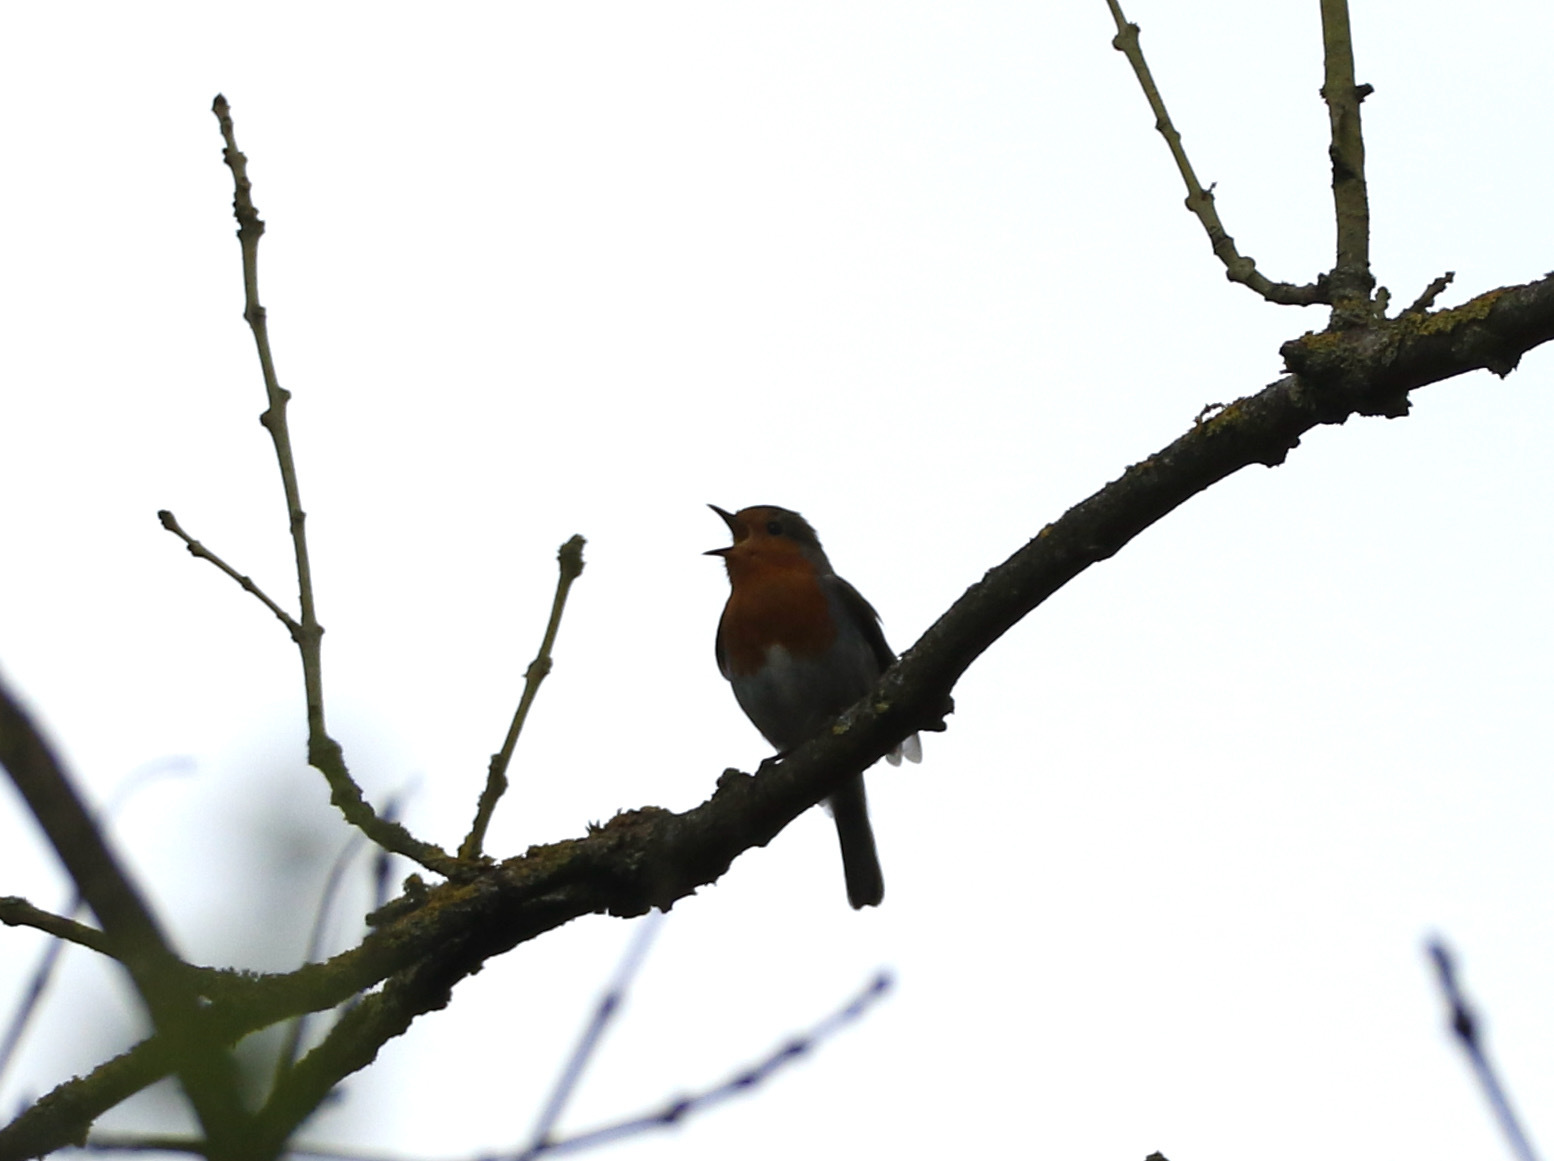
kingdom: Animalia
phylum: Chordata
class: Aves
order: Passeriformes
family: Muscicapidae
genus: Erithacus
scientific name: Erithacus rubecula
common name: European robin
